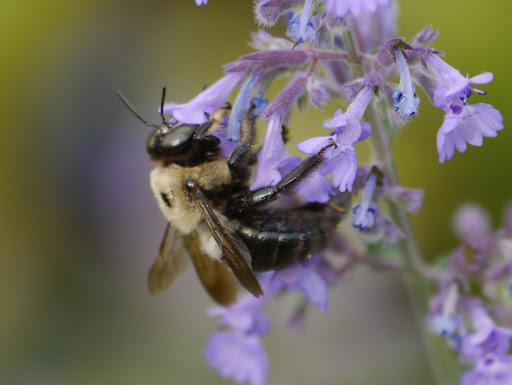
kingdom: Animalia
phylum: Arthropoda
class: Insecta
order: Hymenoptera
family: Apidae
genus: Xylocopa
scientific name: Xylocopa virginica
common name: Carpenter bee
